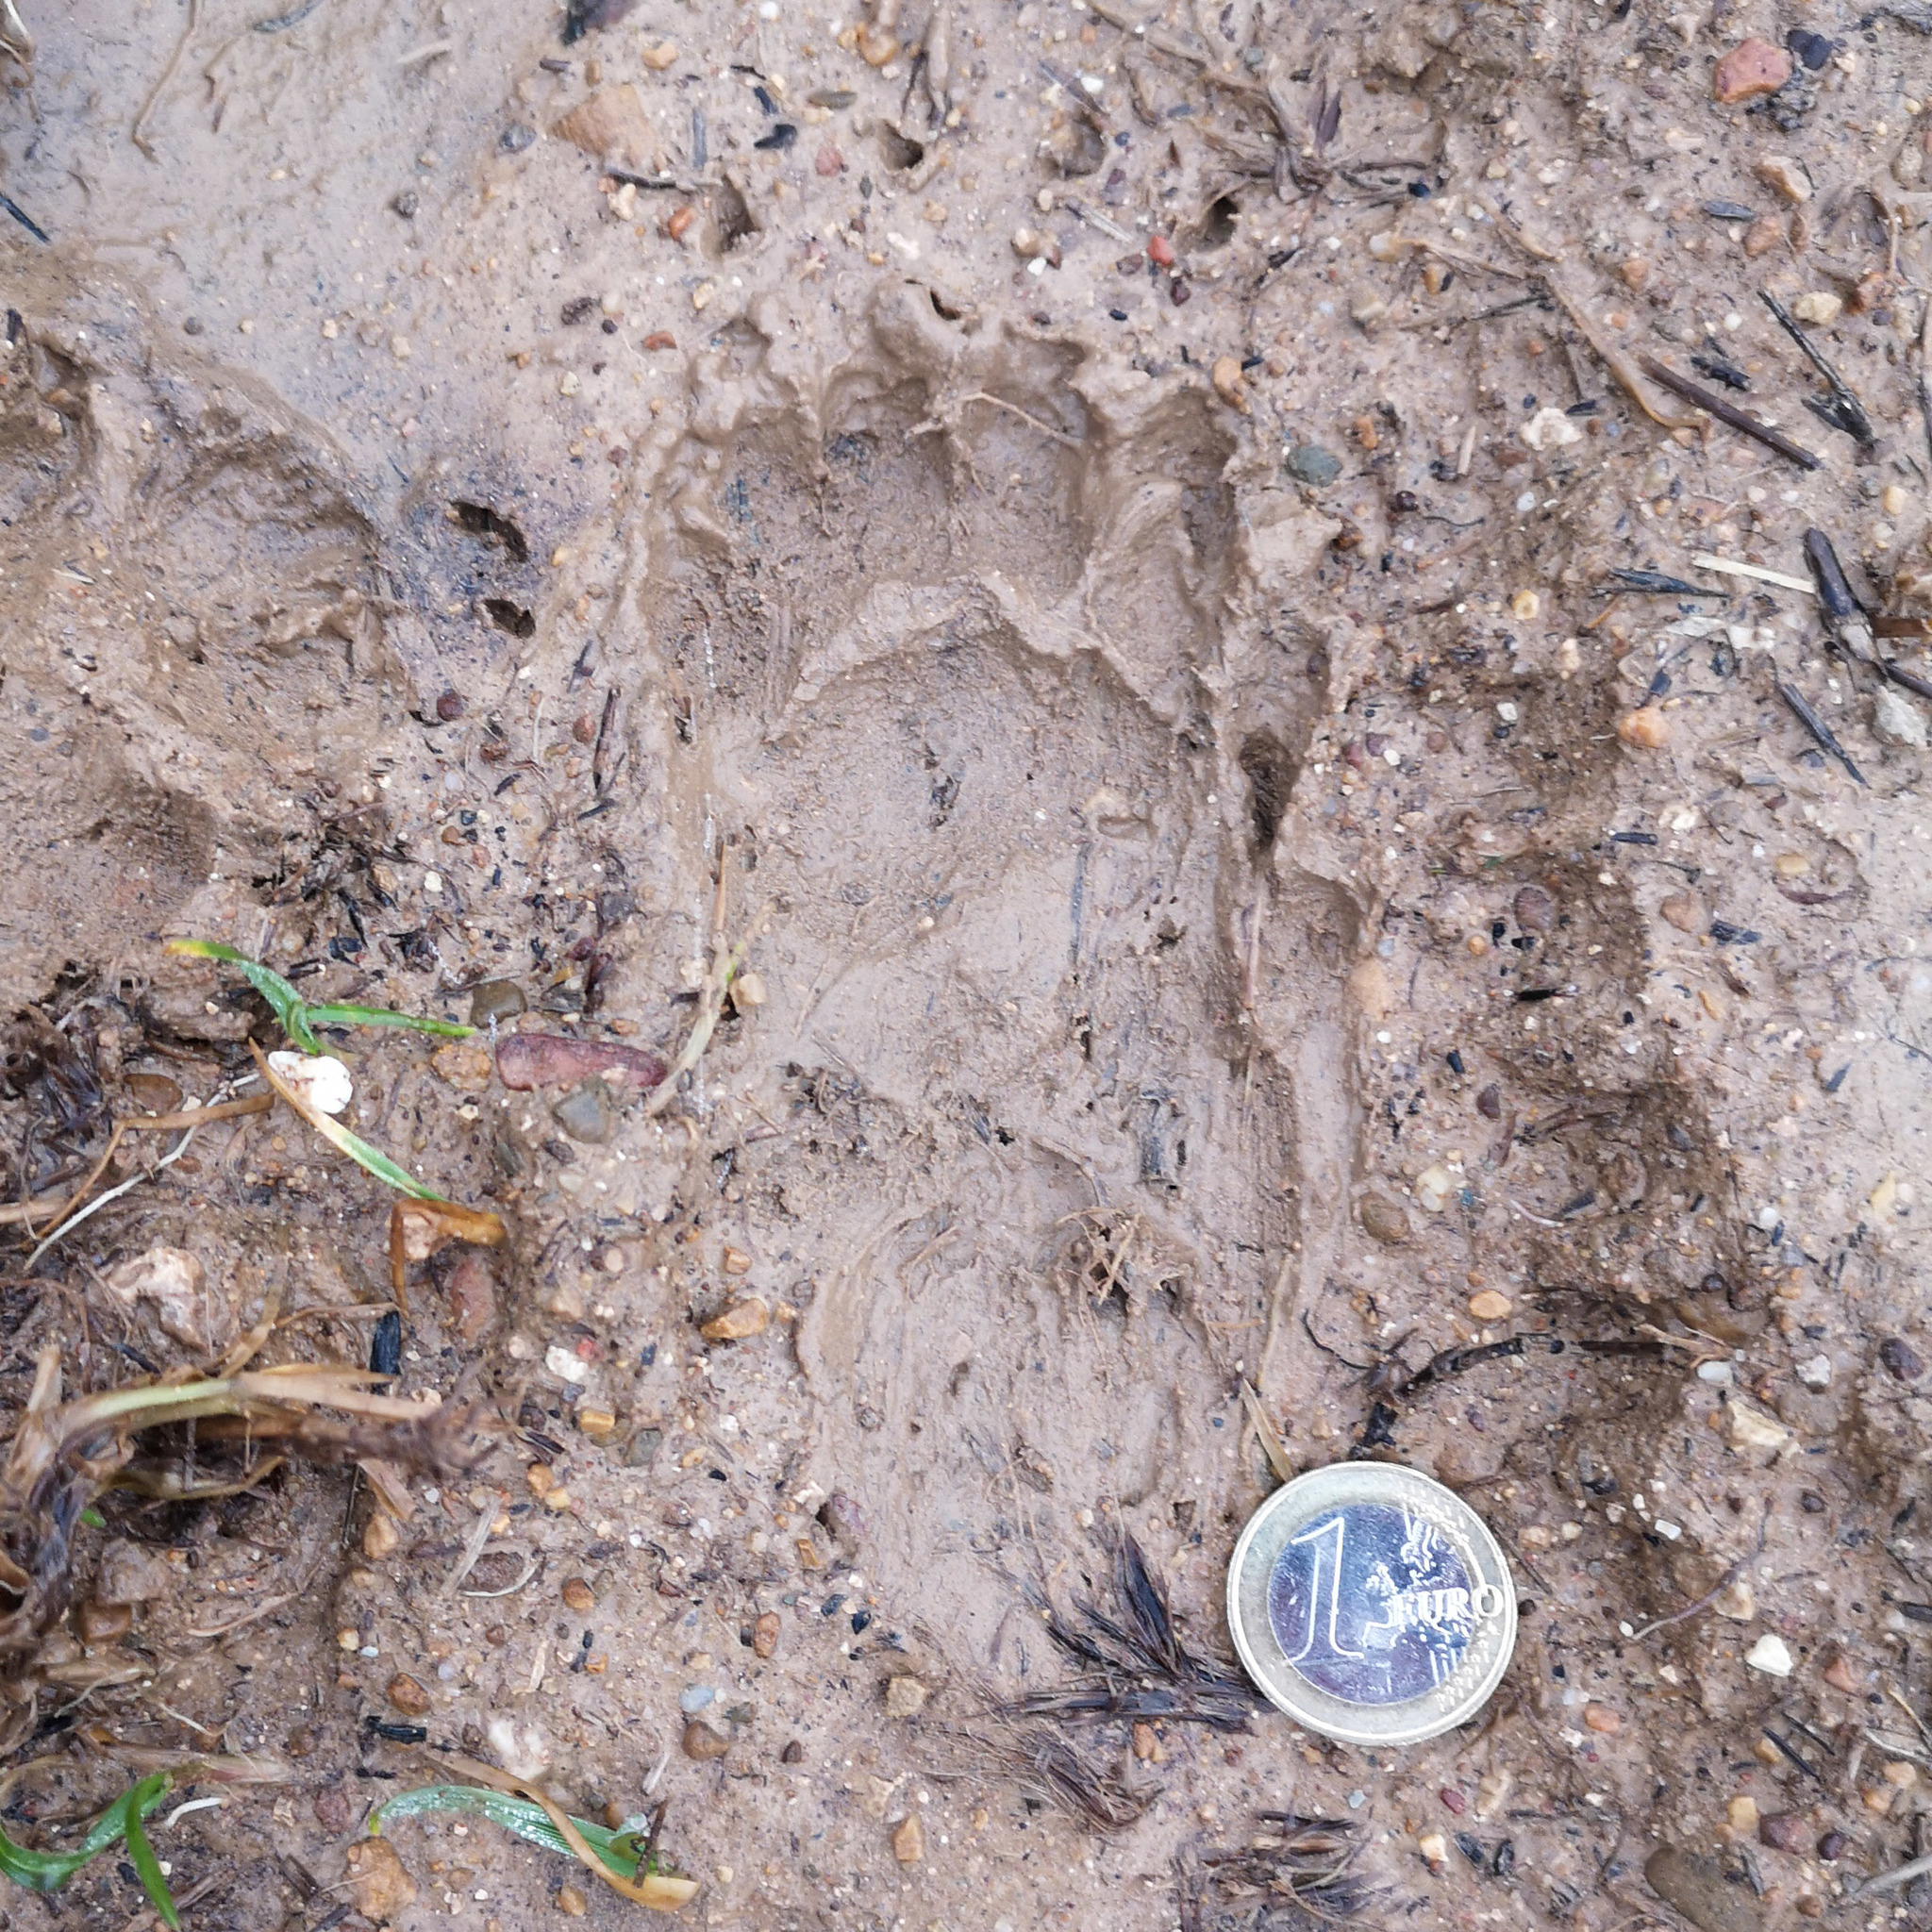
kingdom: Animalia
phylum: Chordata
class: Mammalia
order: Carnivora
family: Mustelidae
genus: Meles
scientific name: Meles meles
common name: Eurasian badger
